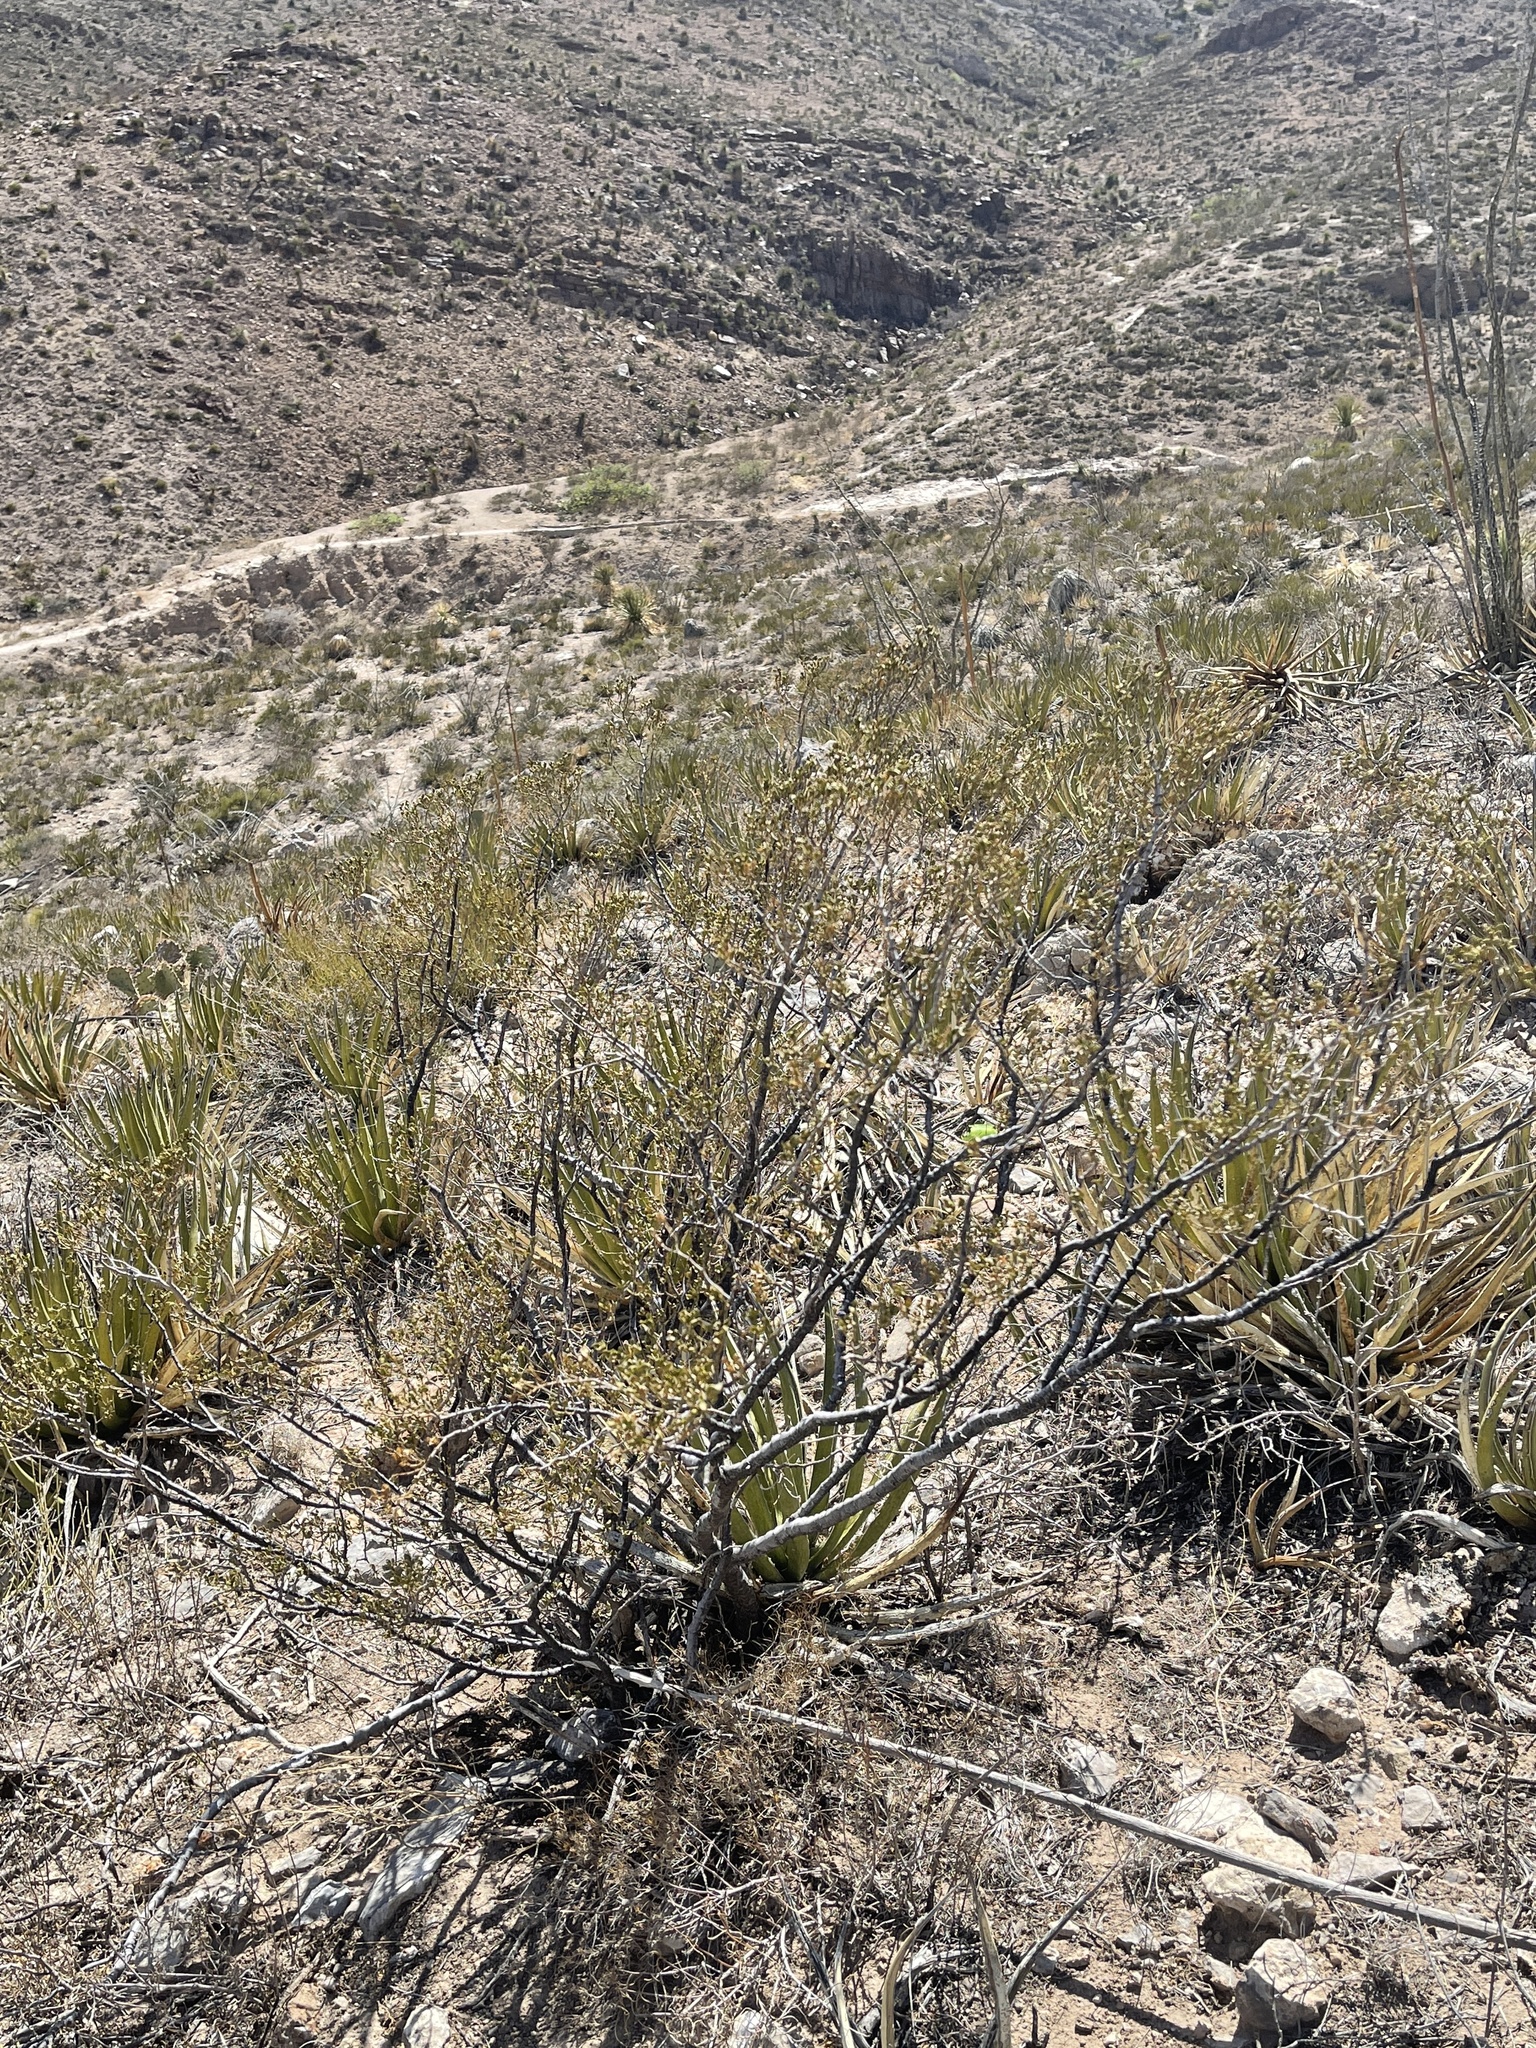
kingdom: Plantae
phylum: Tracheophyta
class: Magnoliopsida
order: Zygophyllales
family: Zygophyllaceae
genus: Larrea
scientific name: Larrea tridentata
